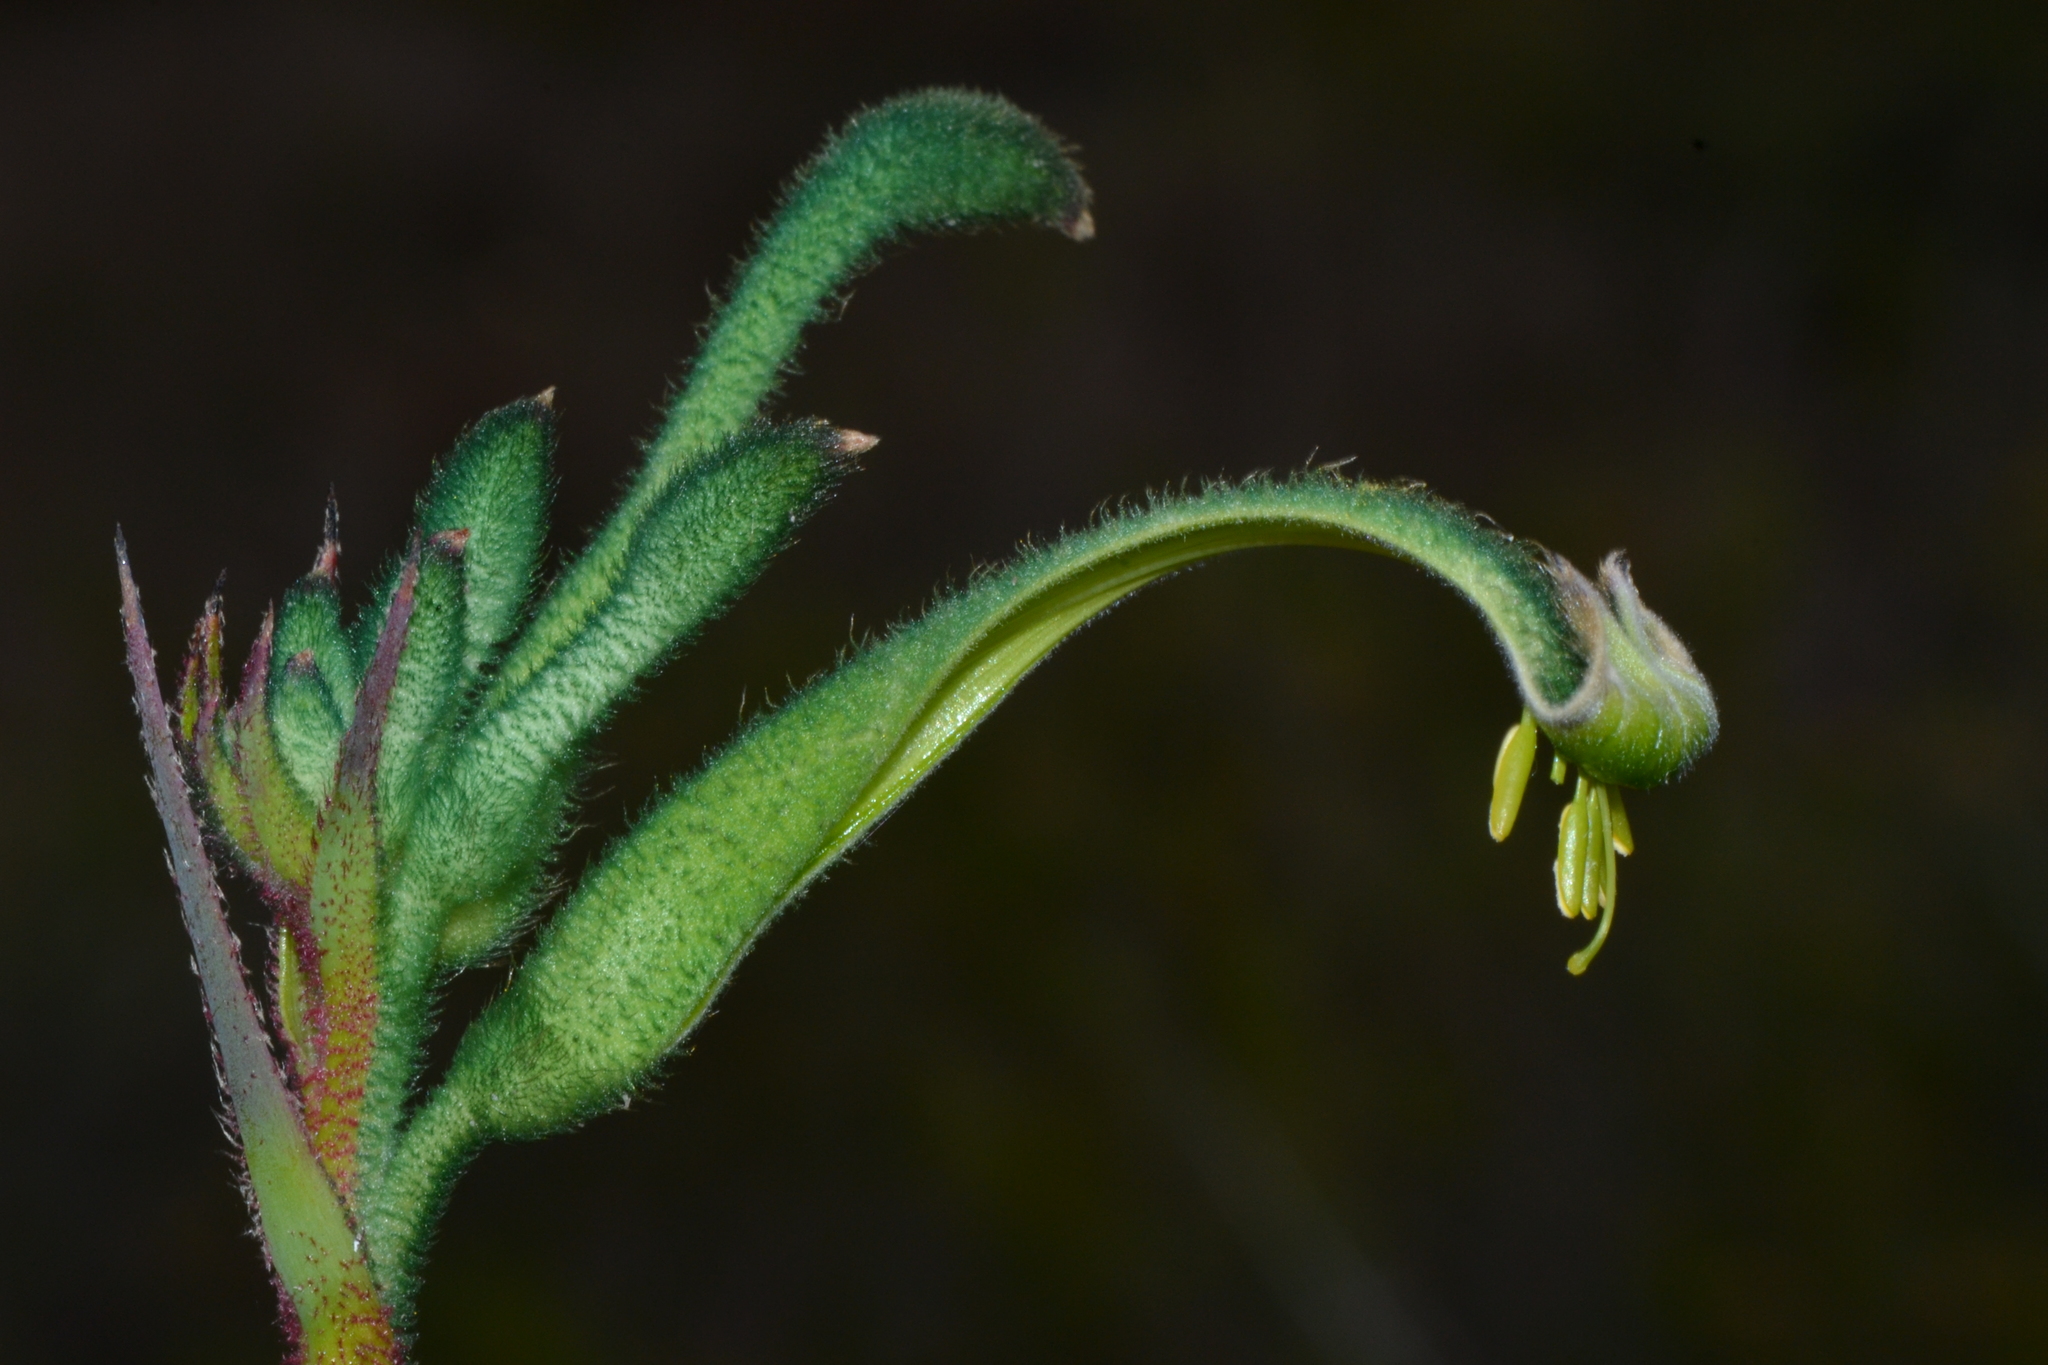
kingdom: Plantae
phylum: Tracheophyta
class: Liliopsida
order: Commelinales
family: Haemodoraceae
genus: Anigozanthos
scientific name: Anigozanthos viridis
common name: Green kangaroo-paw
